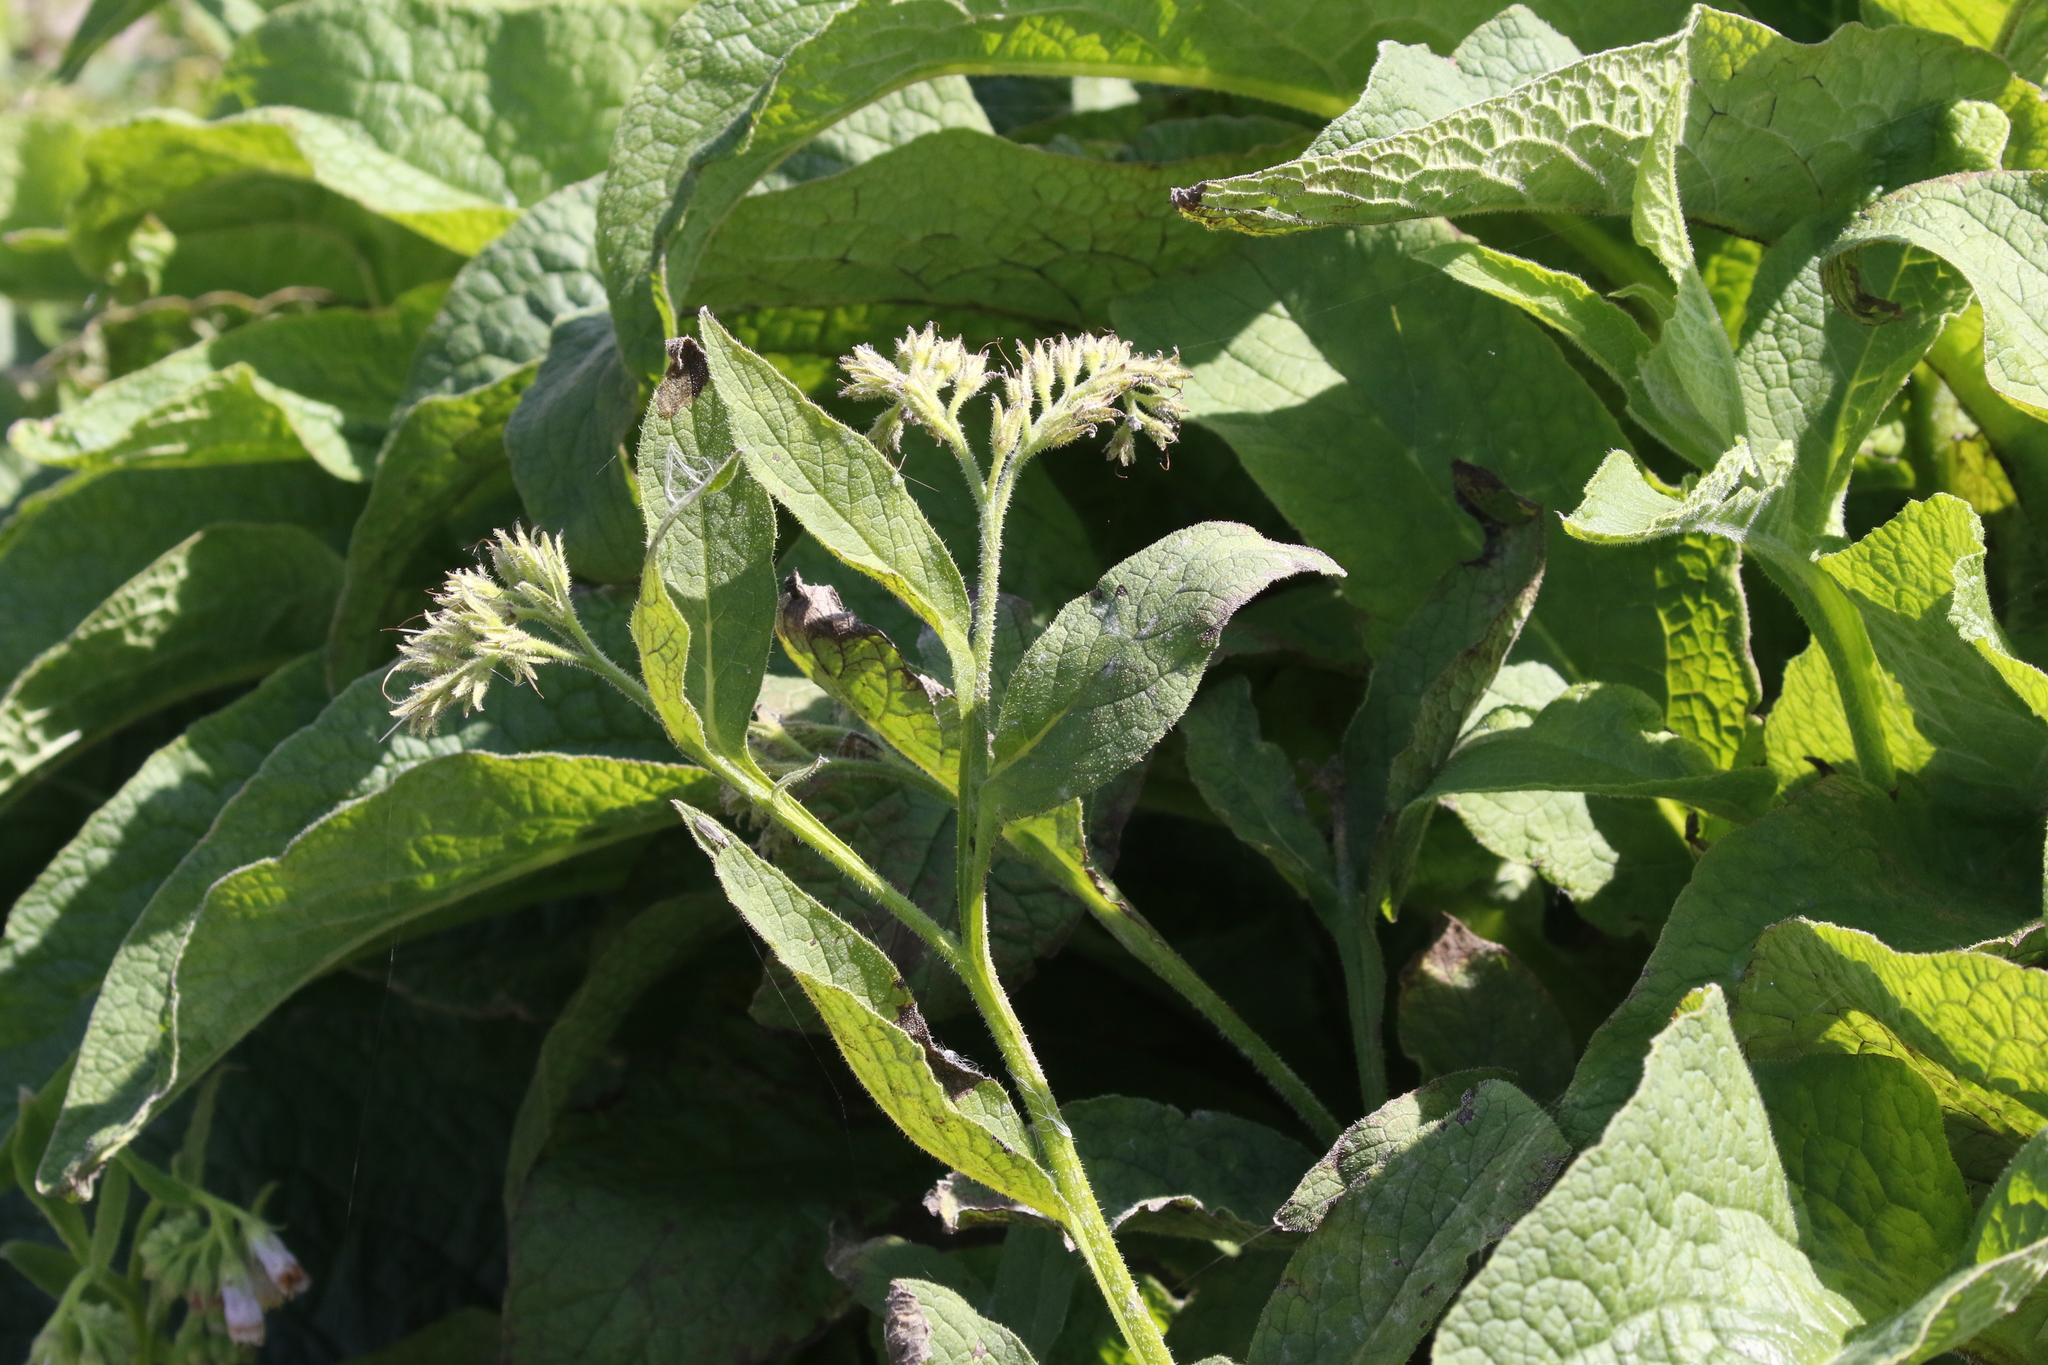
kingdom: Plantae
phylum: Tracheophyta
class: Magnoliopsida
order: Boraginales
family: Boraginaceae
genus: Symphytum
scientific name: Symphytum officinale
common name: Common comfrey
